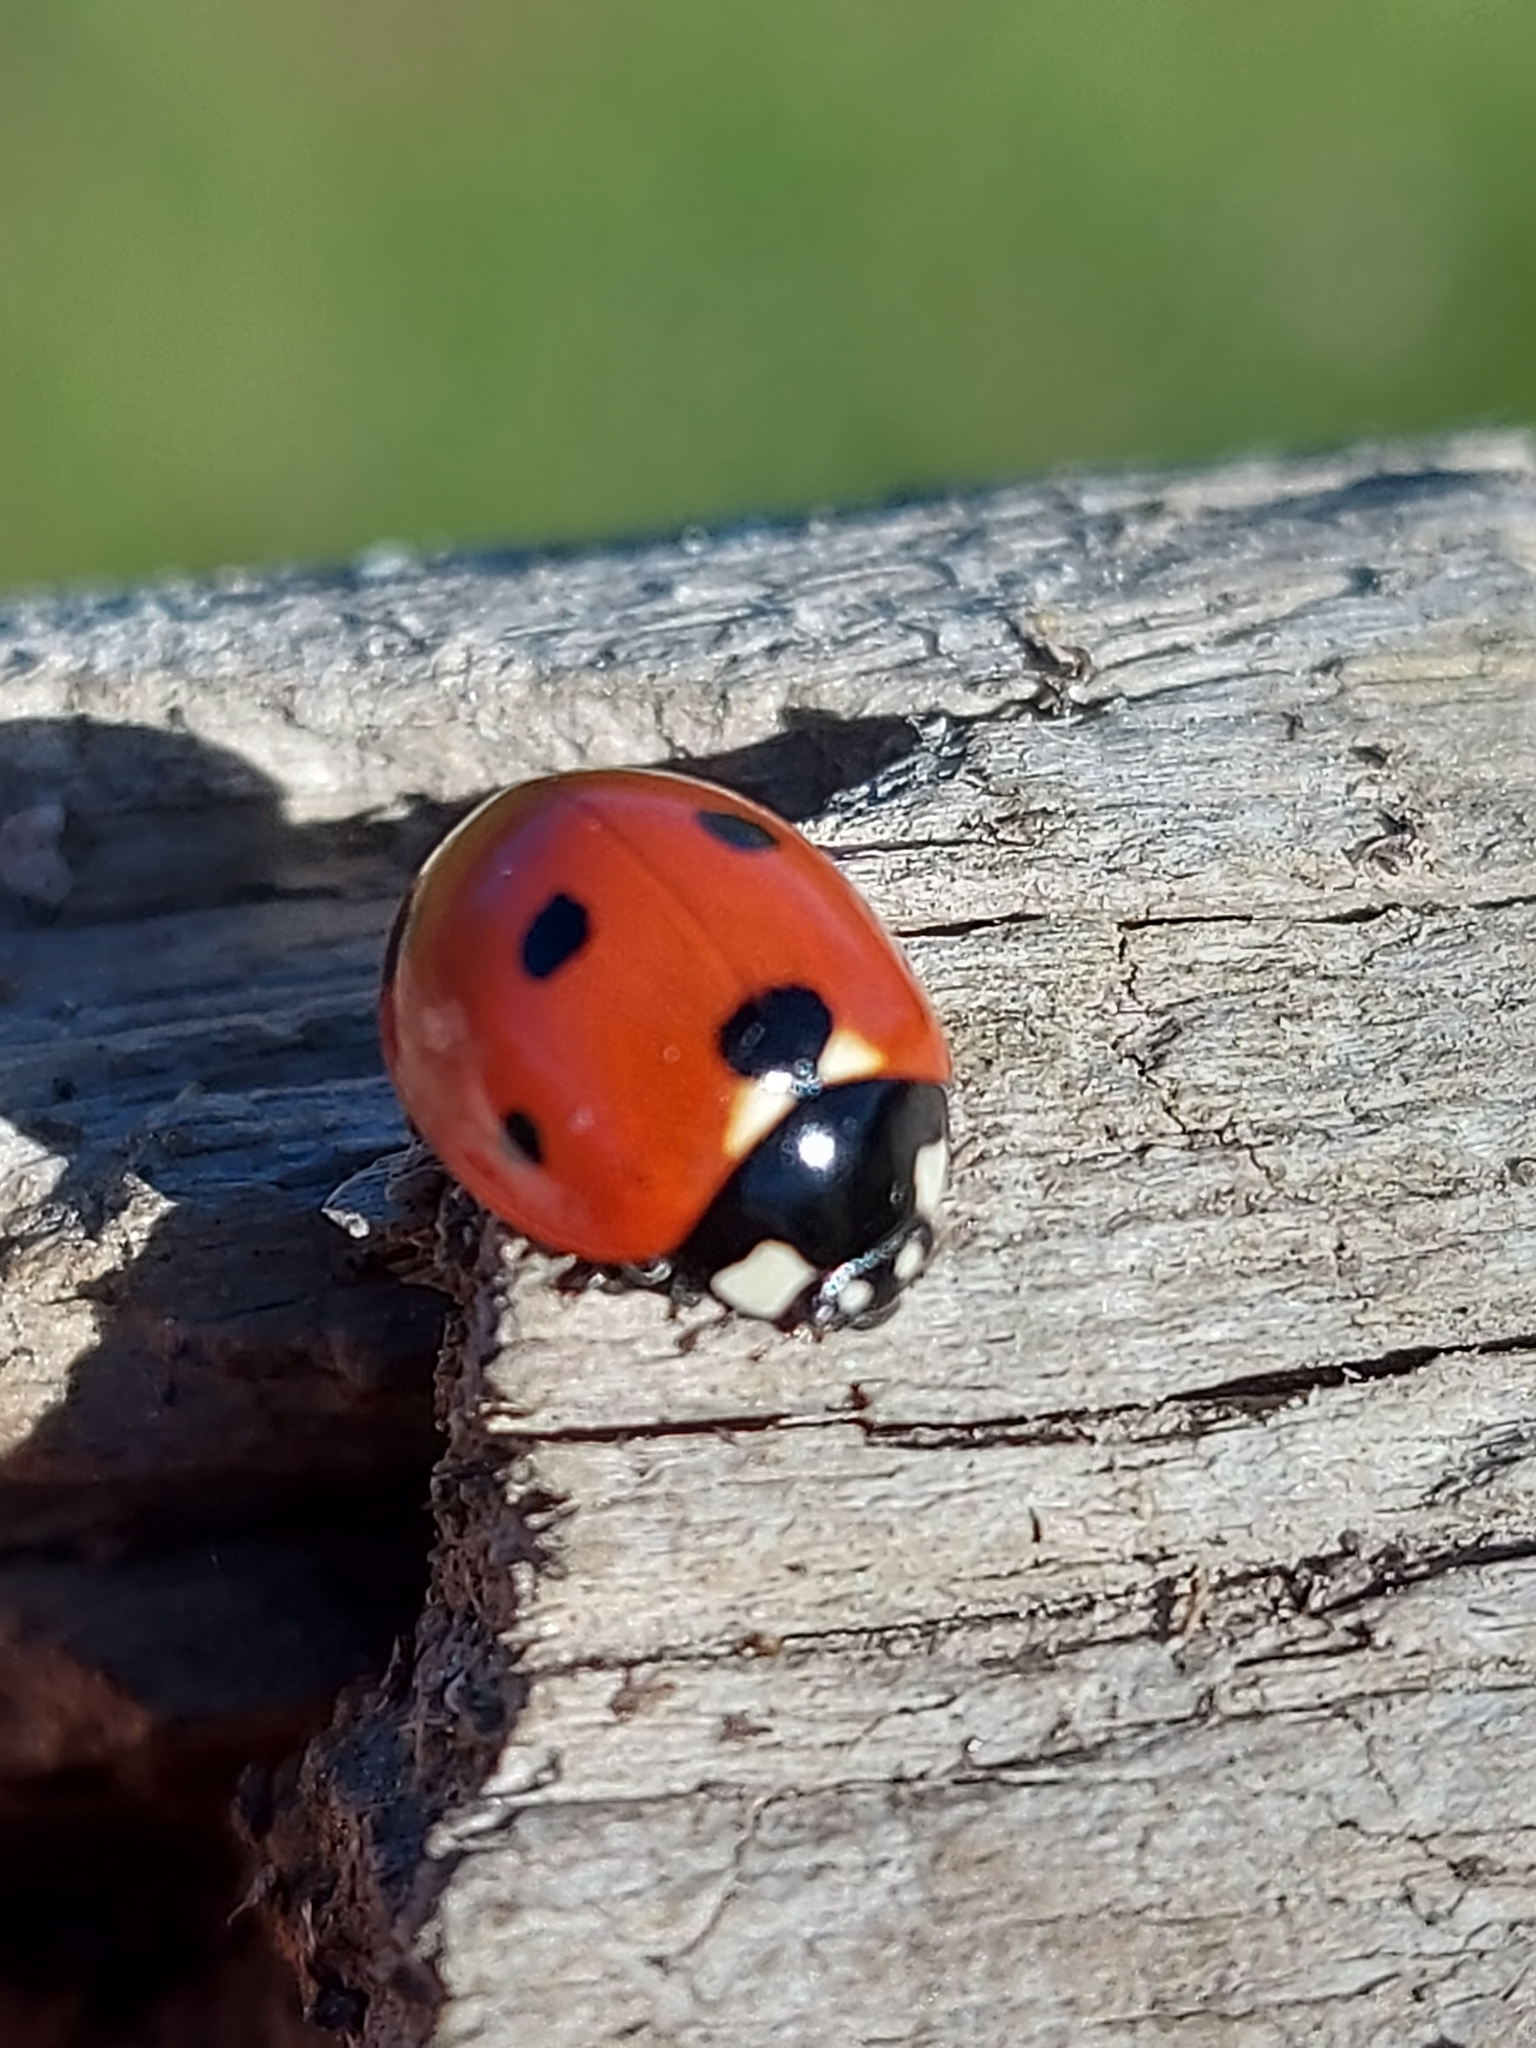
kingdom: Animalia
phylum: Arthropoda
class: Insecta
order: Coleoptera
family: Coccinellidae
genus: Coccinella
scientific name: Coccinella septempunctata
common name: Sevenspotted lady beetle
